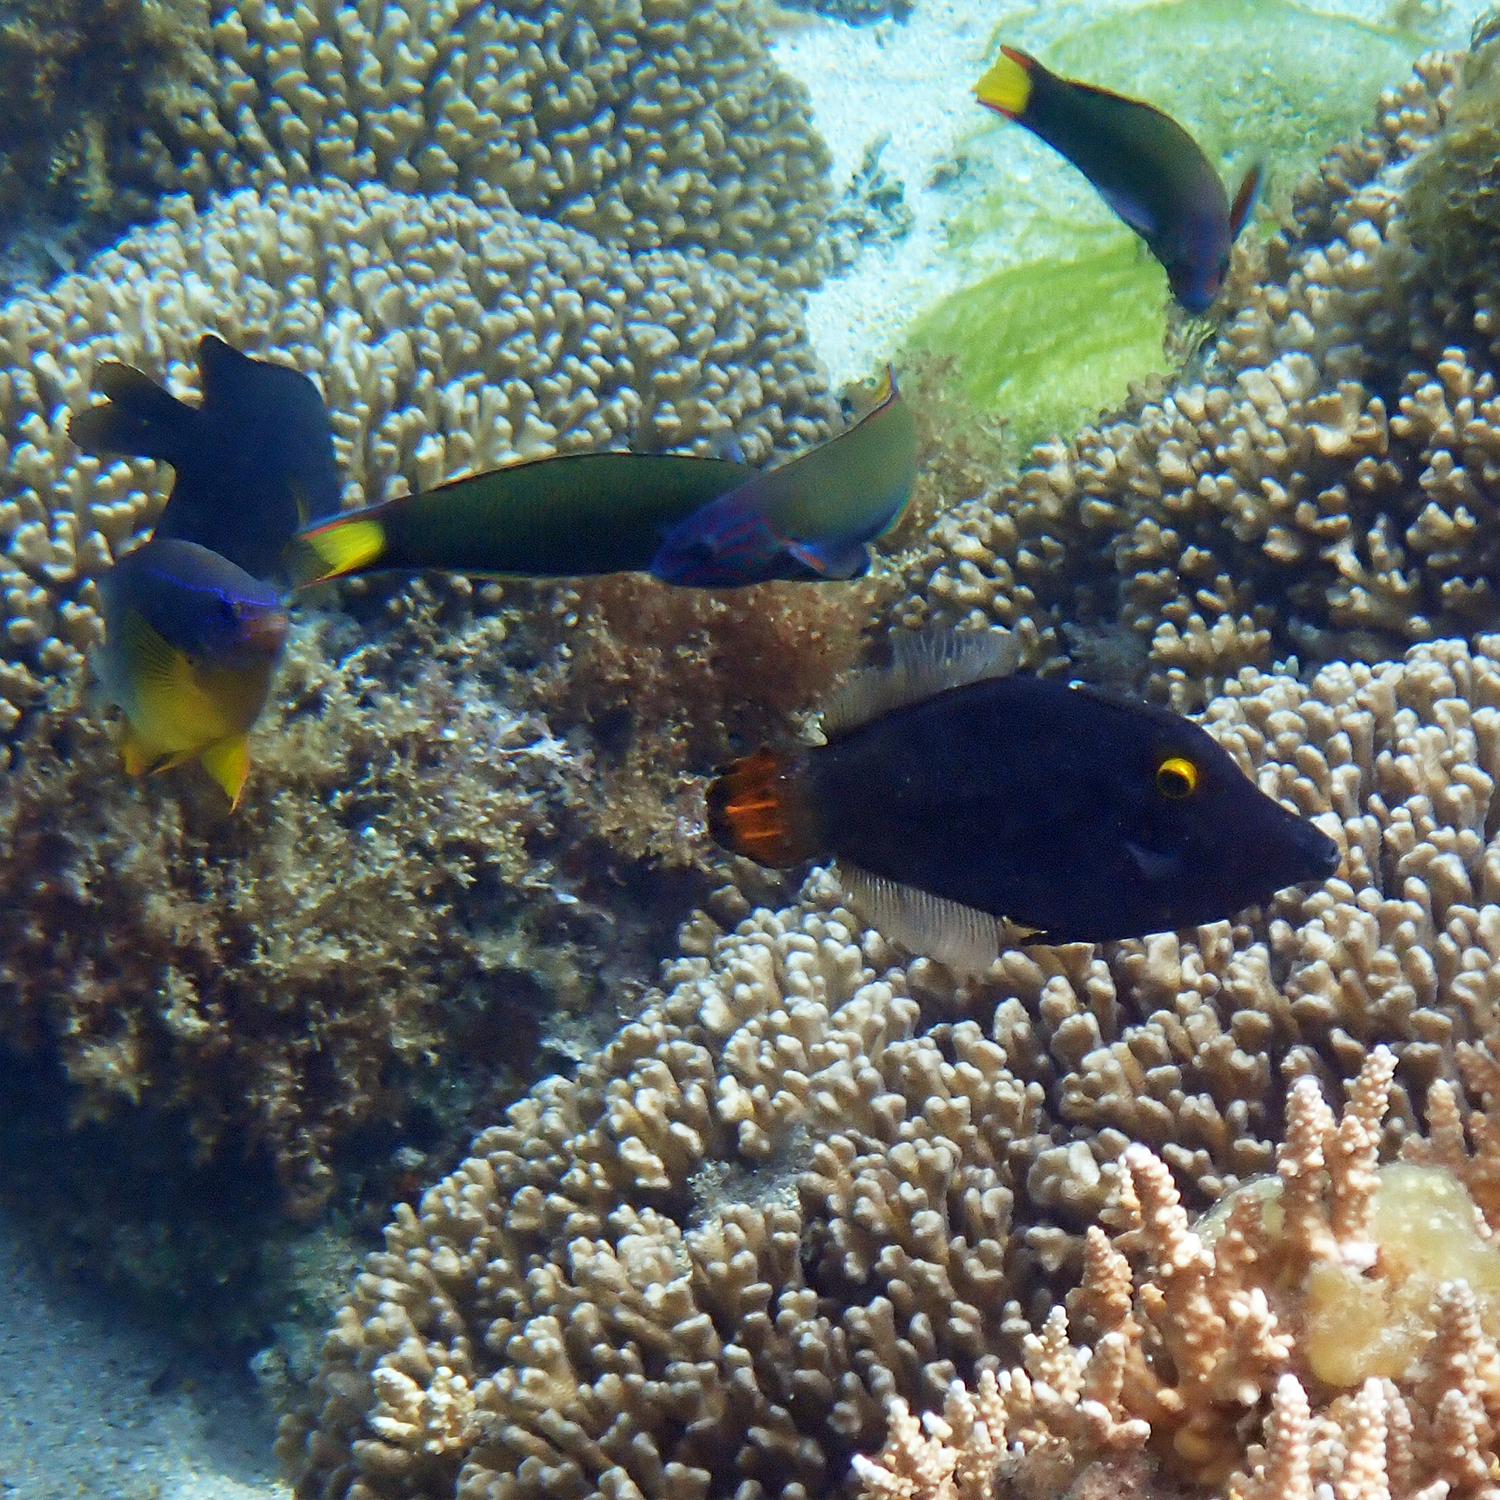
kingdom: Animalia
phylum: Chordata
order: Tetraodontiformes
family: Monacanthidae
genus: Pervagor
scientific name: Pervagor alternans
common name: Yelloweye filefish
